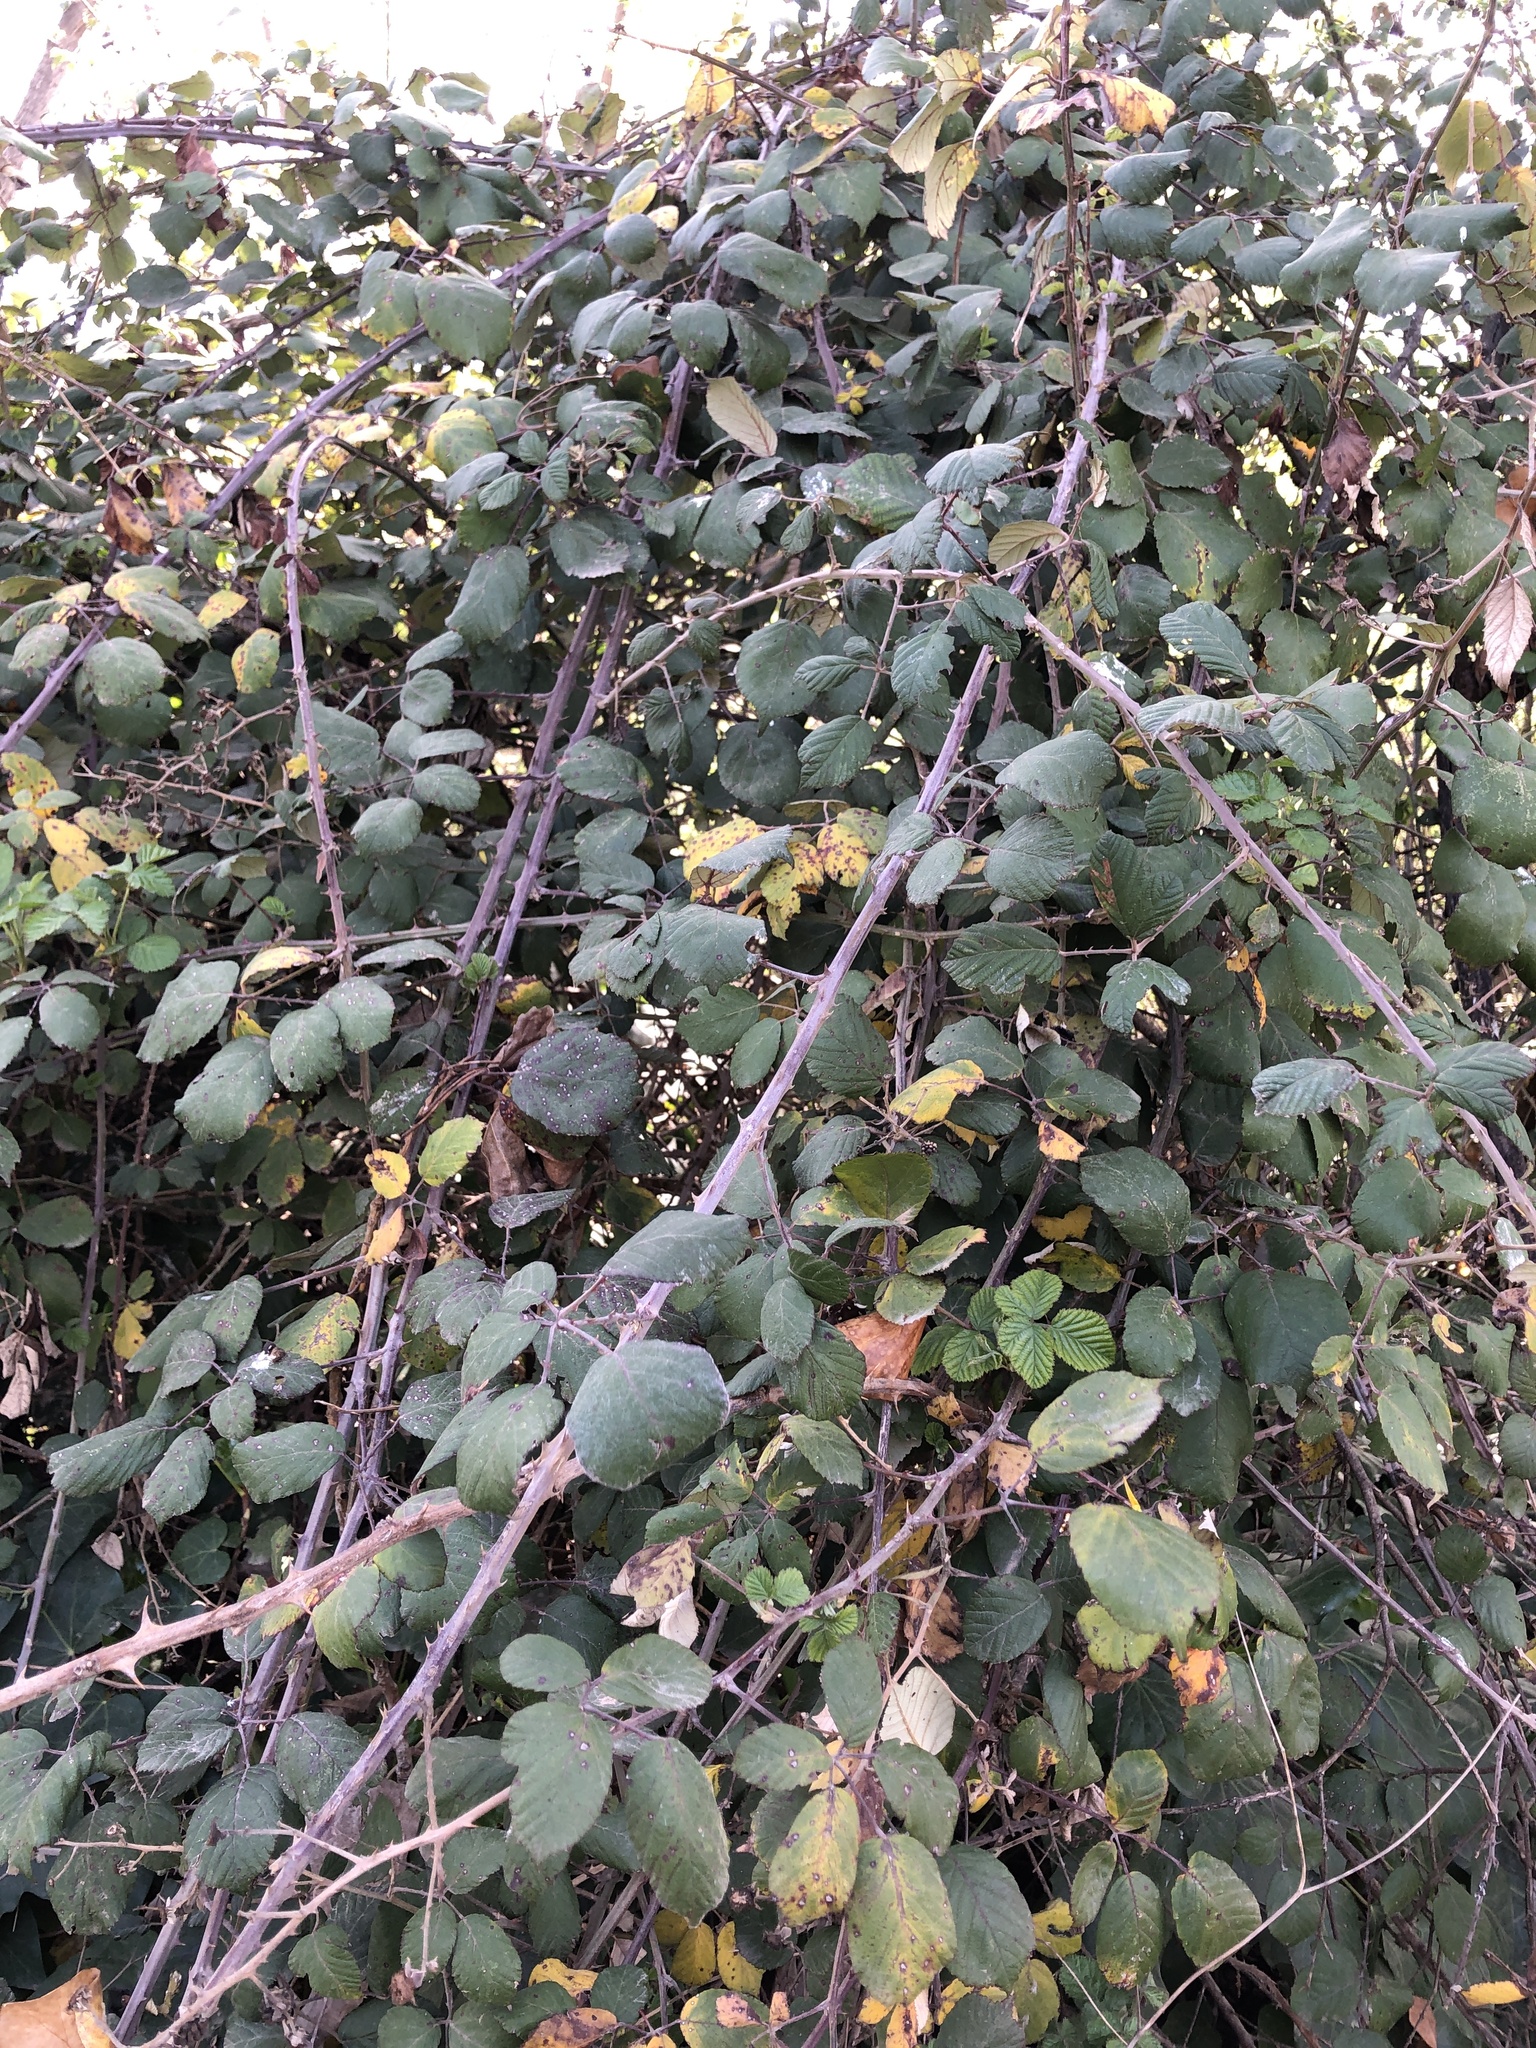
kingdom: Plantae
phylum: Tracheophyta
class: Magnoliopsida
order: Rosales
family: Rosaceae
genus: Rubus
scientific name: Rubus ulmifolius
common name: Elmleaf blackberry
